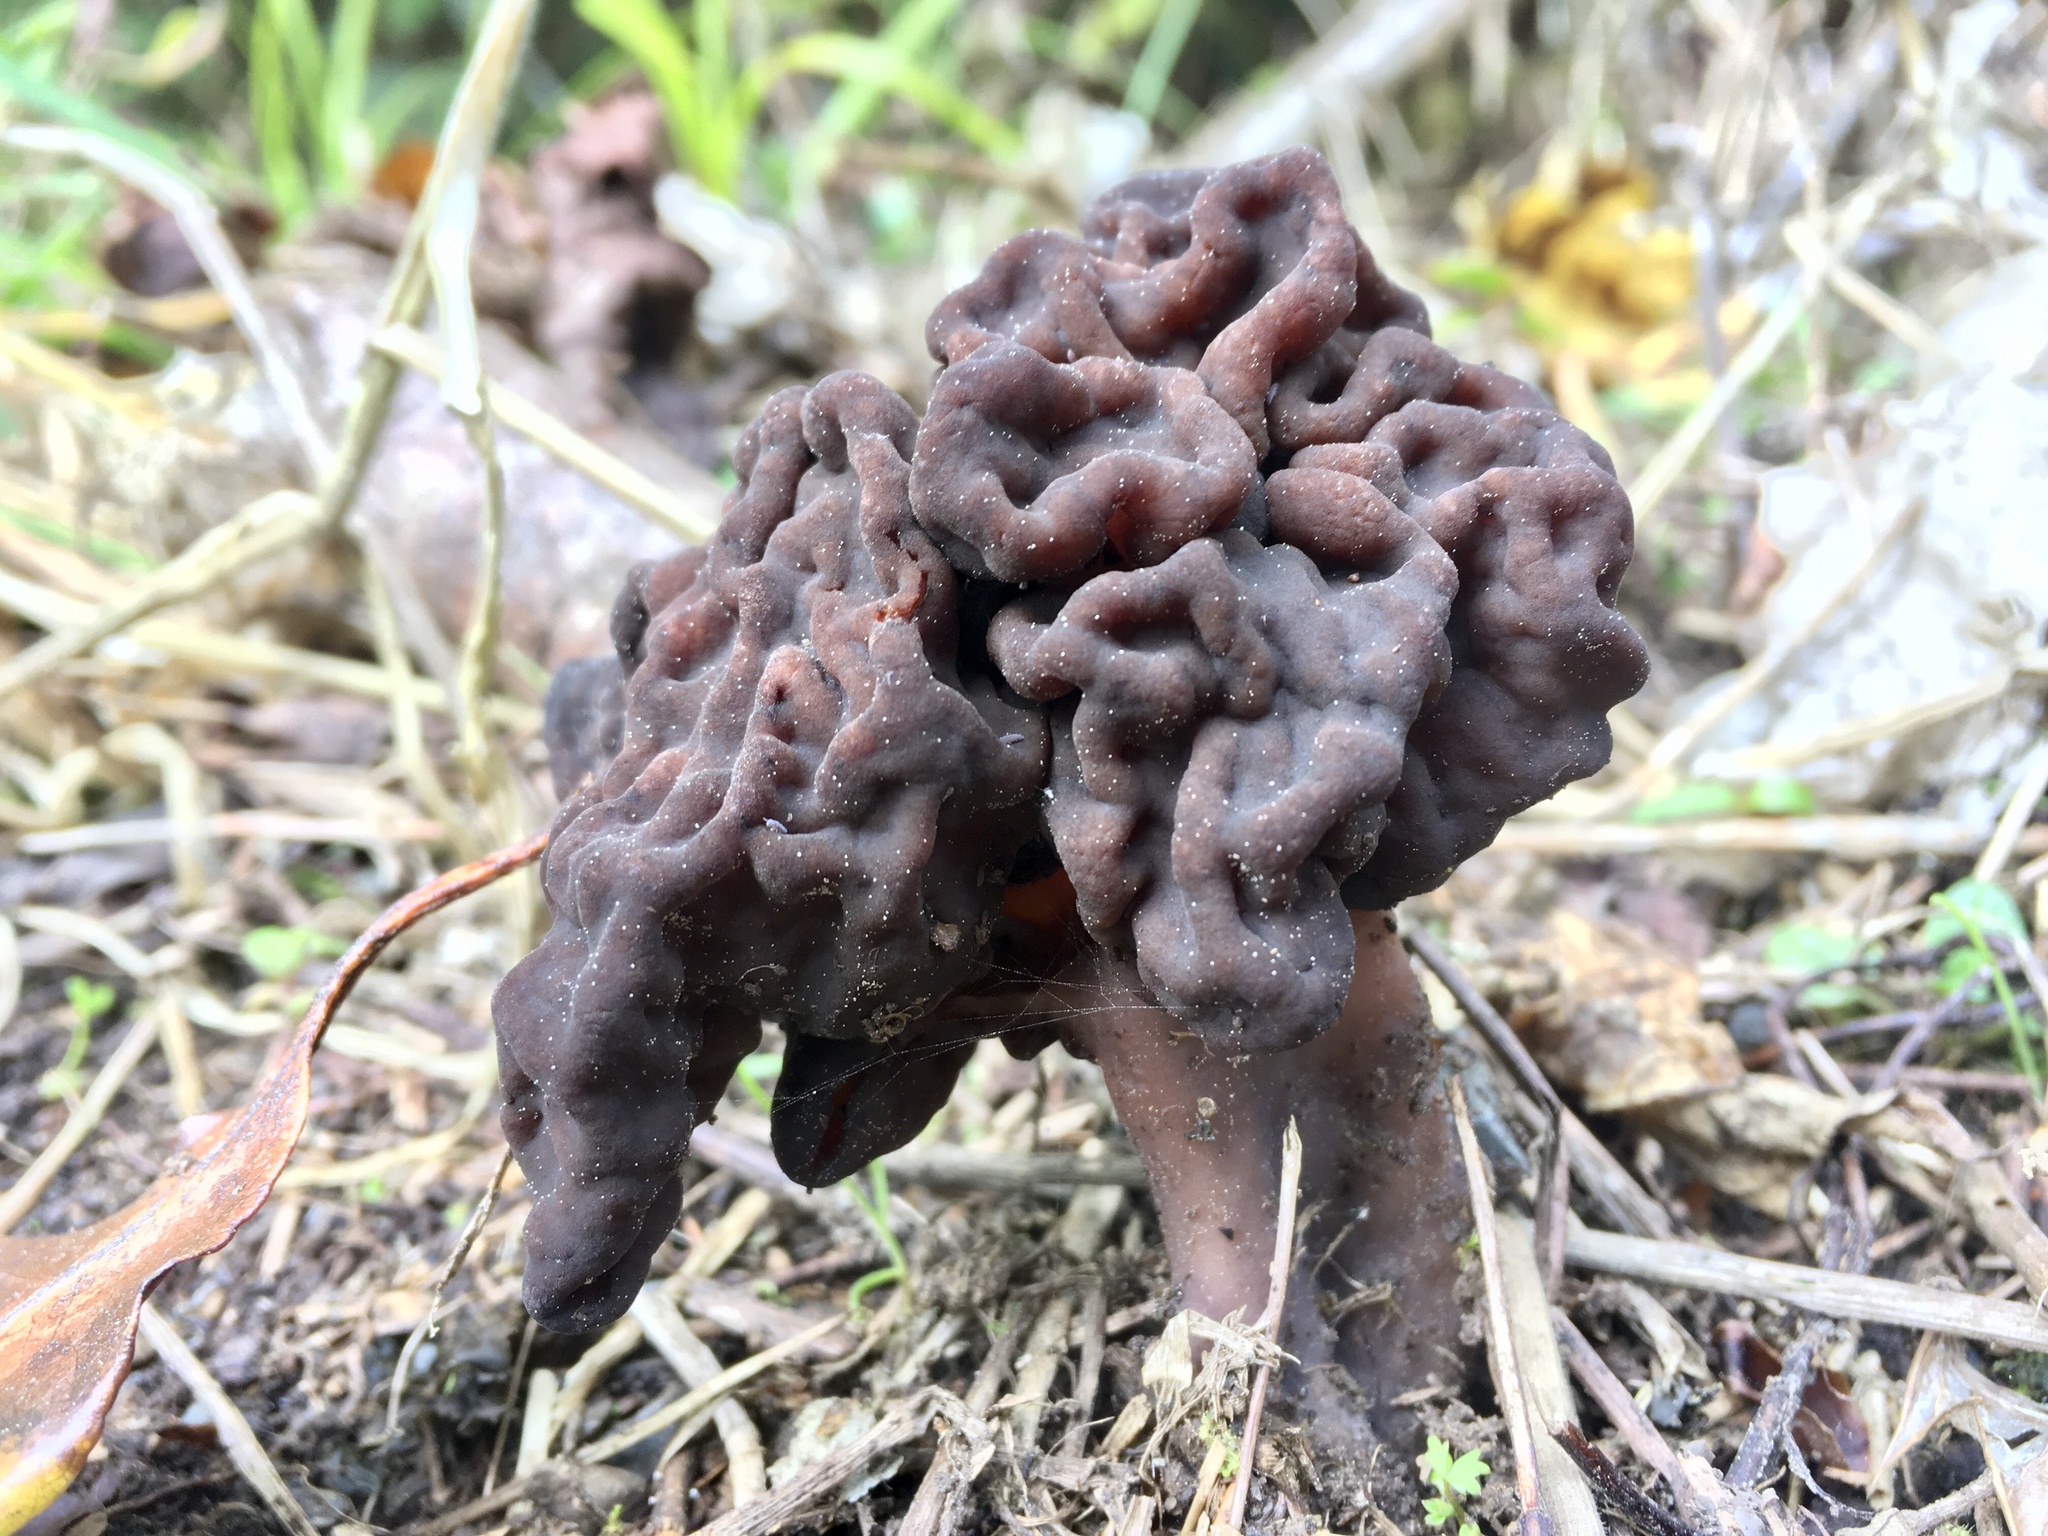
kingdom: Fungi
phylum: Ascomycota
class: Pezizomycetes
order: Pezizales
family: Discinaceae
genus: Gyromitra
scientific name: Gyromitra tasmanica
